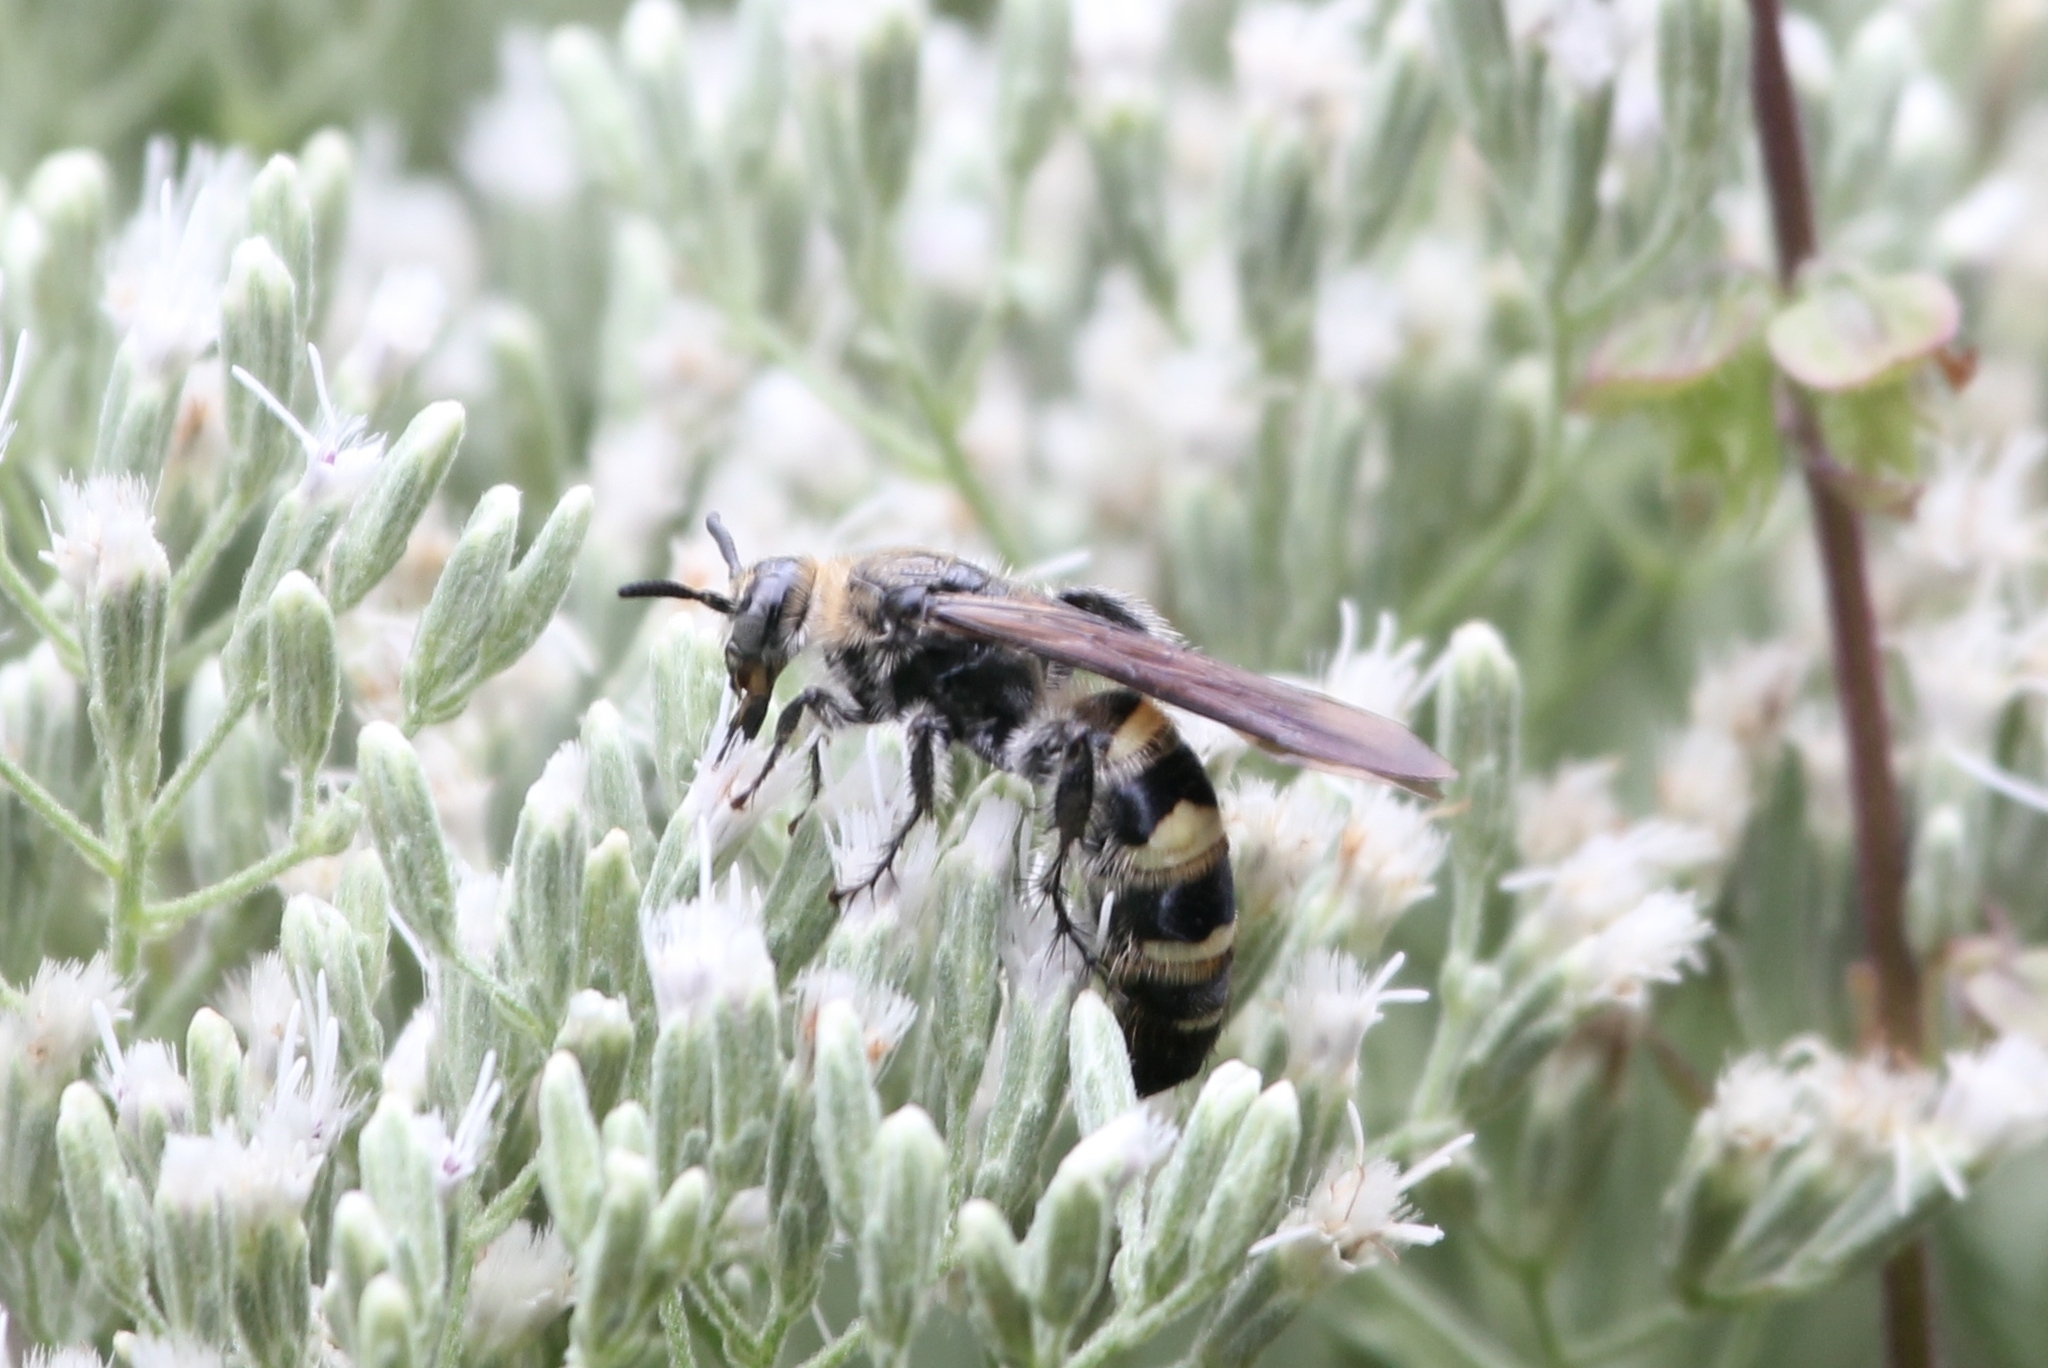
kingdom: Animalia
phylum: Arthropoda
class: Insecta
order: Hymenoptera
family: Scoliidae
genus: Dielis
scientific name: Dielis
